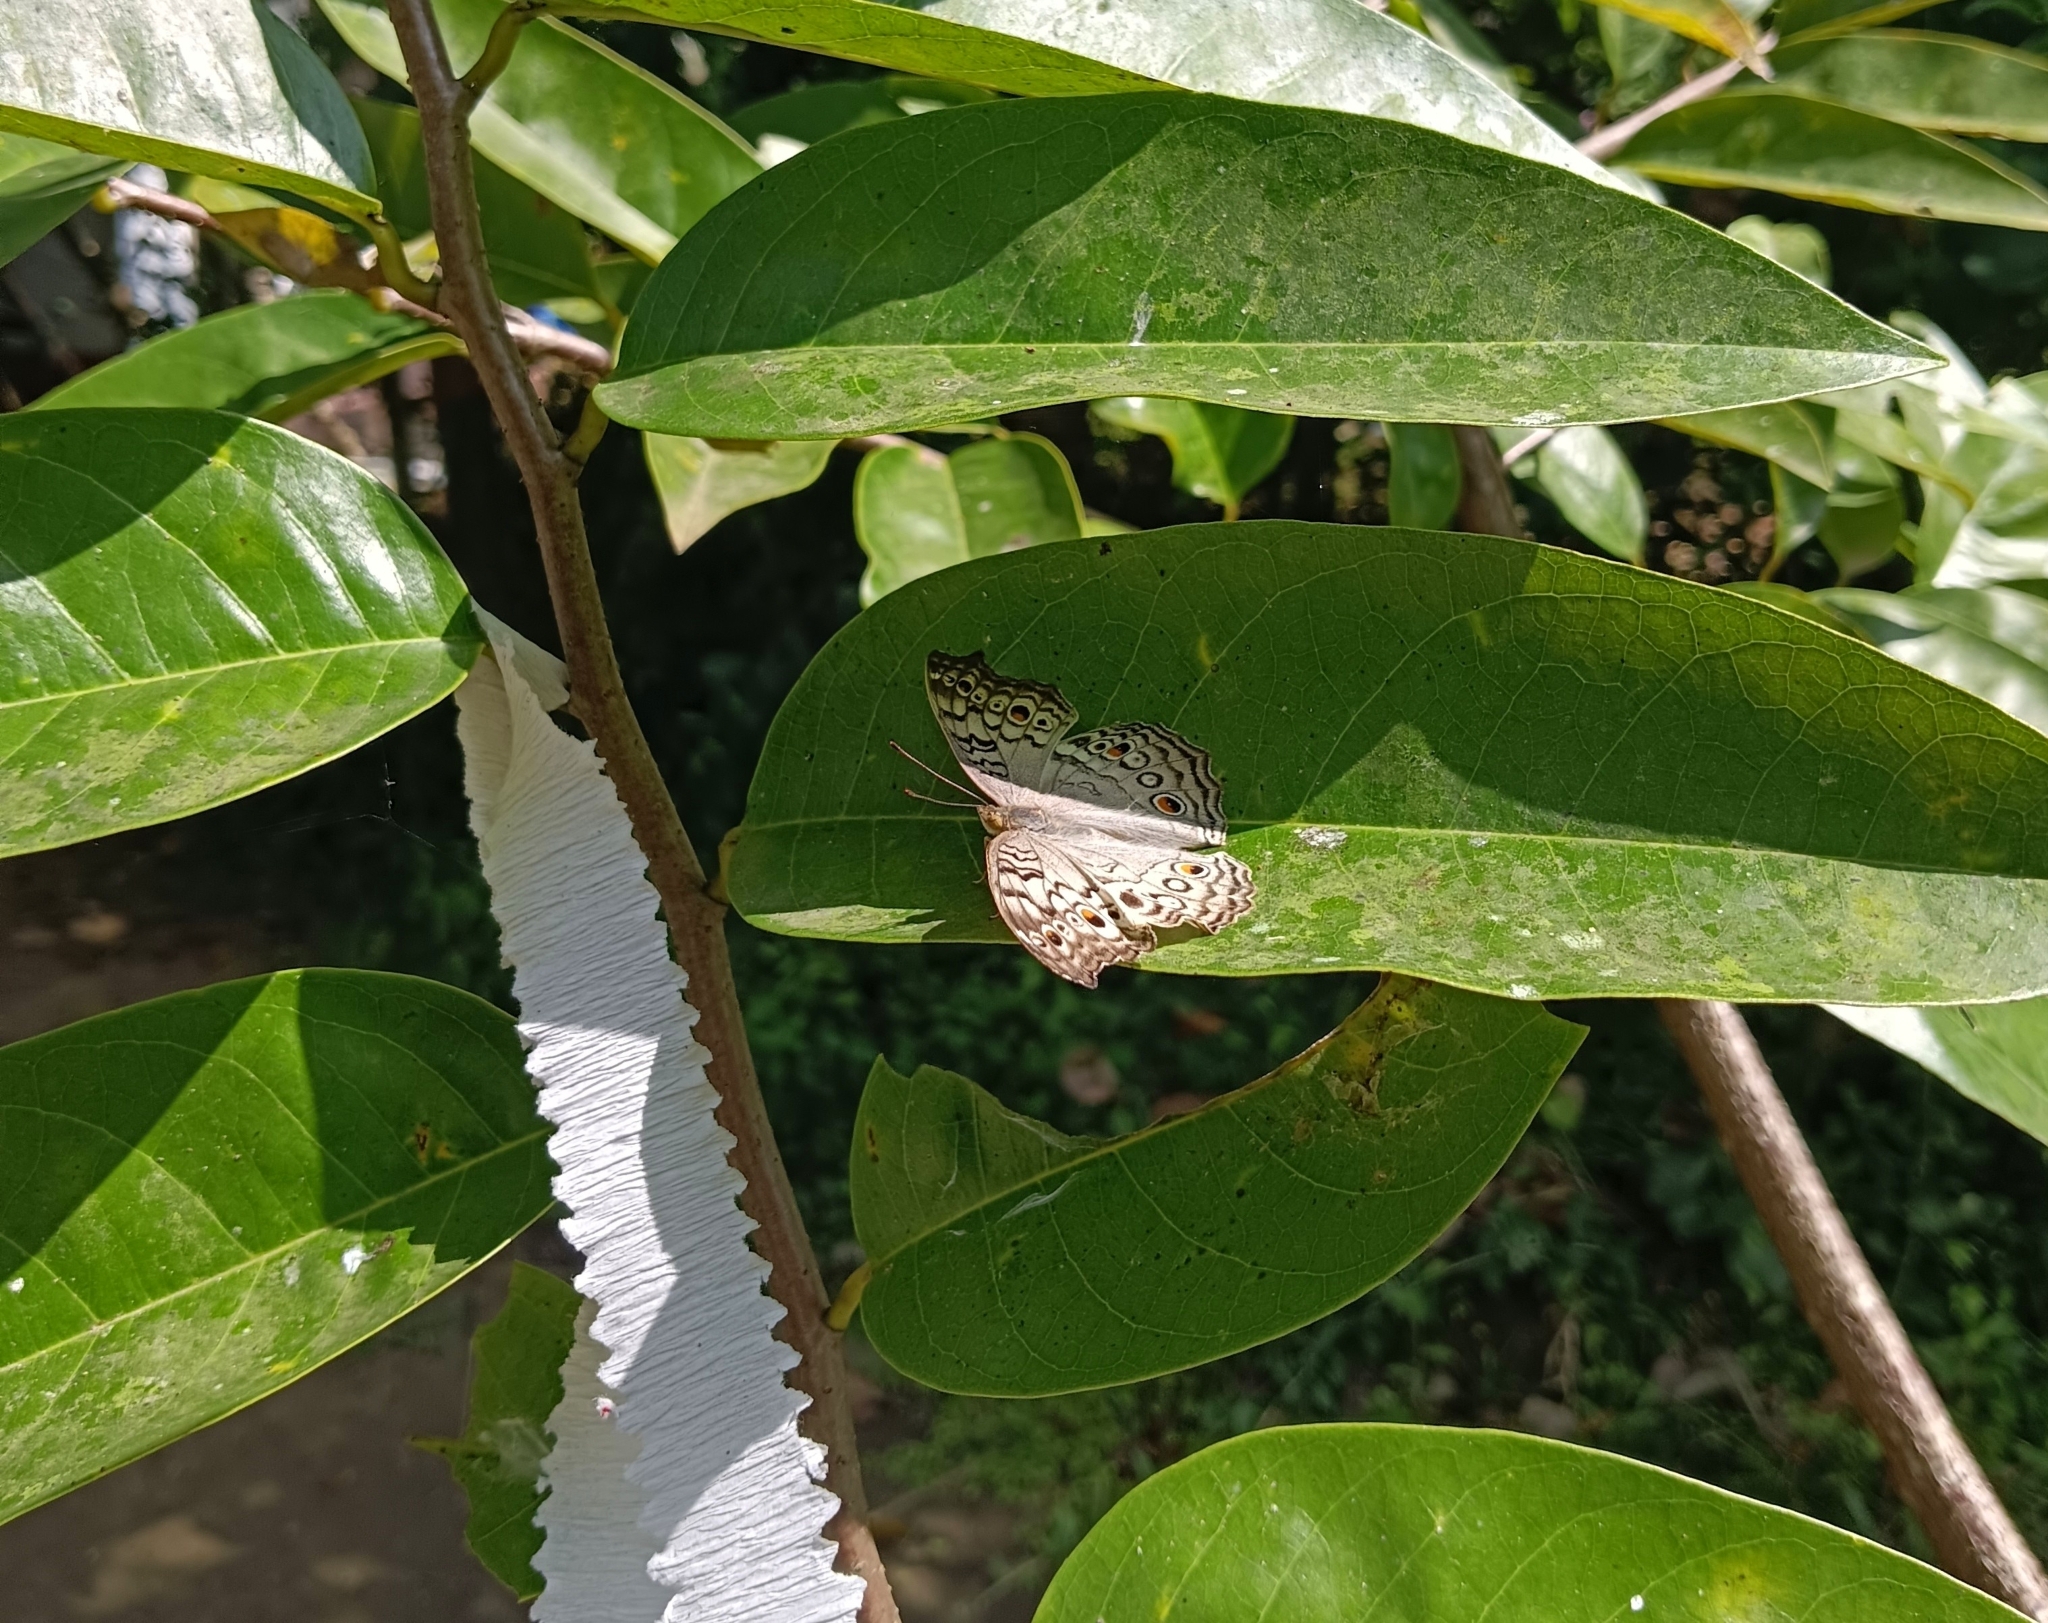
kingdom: Animalia
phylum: Arthropoda
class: Insecta
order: Lepidoptera
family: Nymphalidae
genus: Junonia
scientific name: Junonia atlites
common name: Grey pansy
